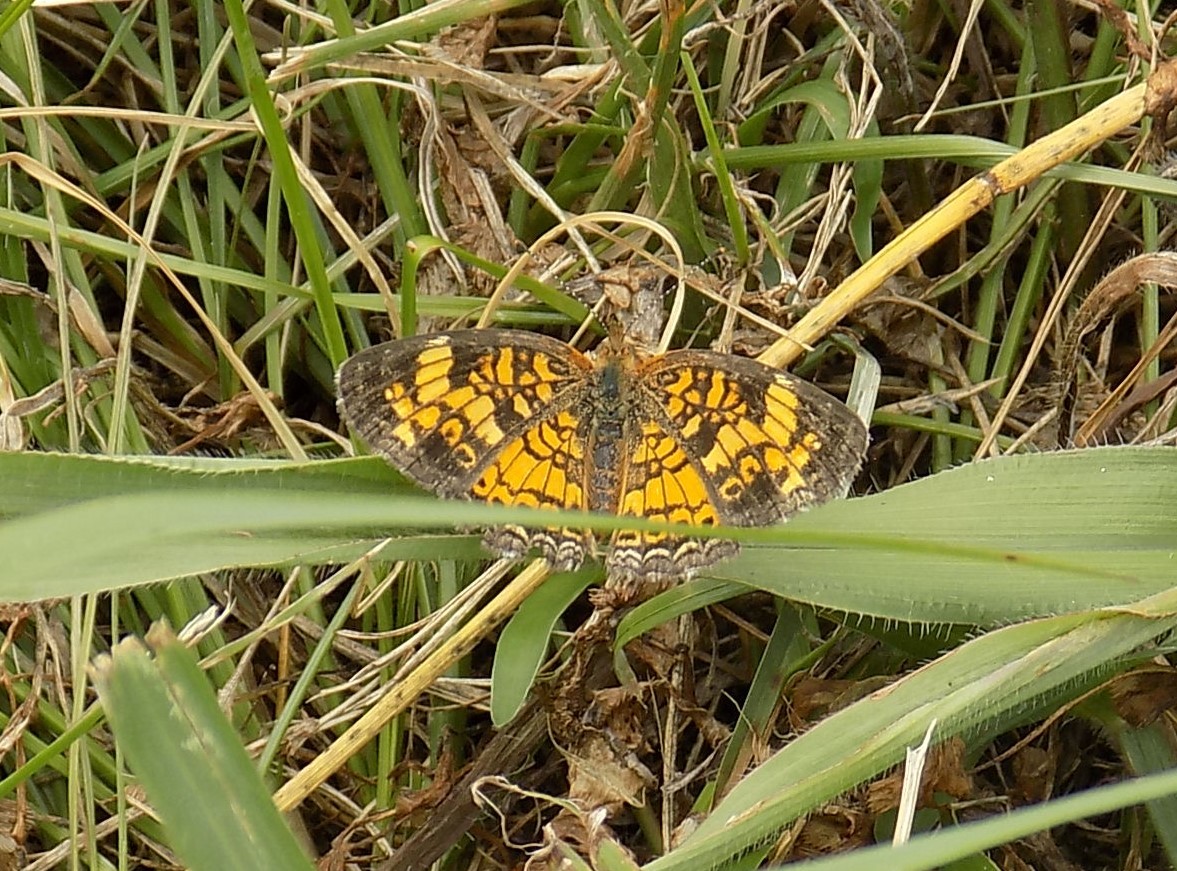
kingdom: Animalia
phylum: Arthropoda
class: Insecta
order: Lepidoptera
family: Nymphalidae
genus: Phyciodes
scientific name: Phyciodes tharos
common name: Pearl crescent
